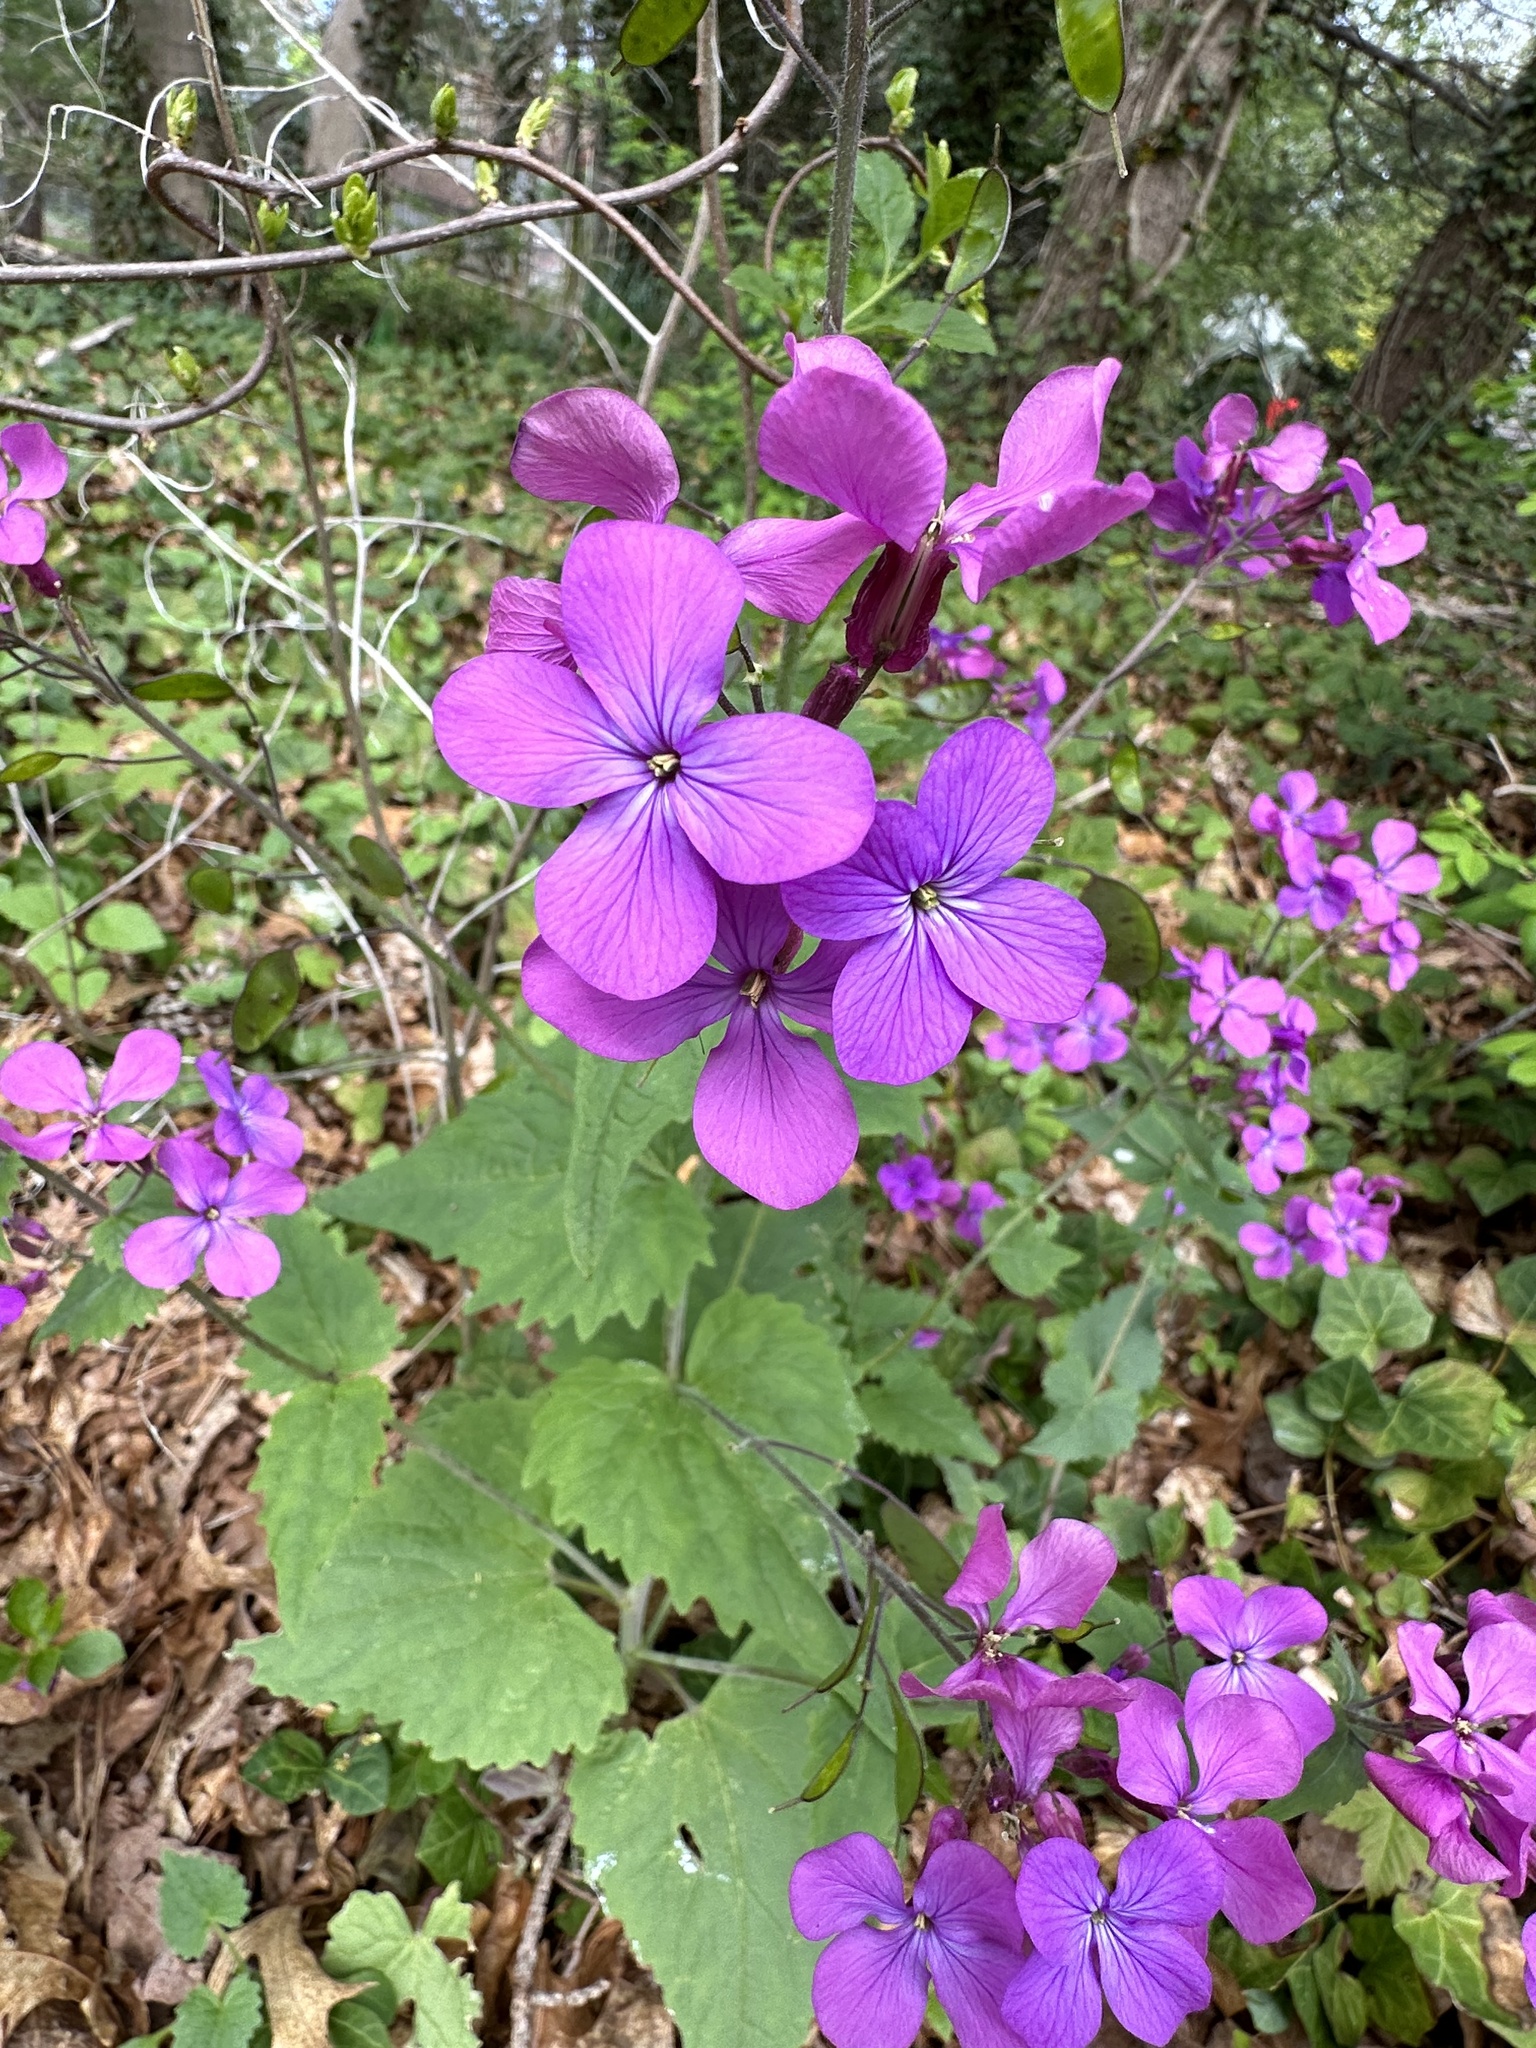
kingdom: Plantae
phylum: Tracheophyta
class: Magnoliopsida
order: Brassicales
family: Brassicaceae
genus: Lunaria
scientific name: Lunaria annua
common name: Honesty
